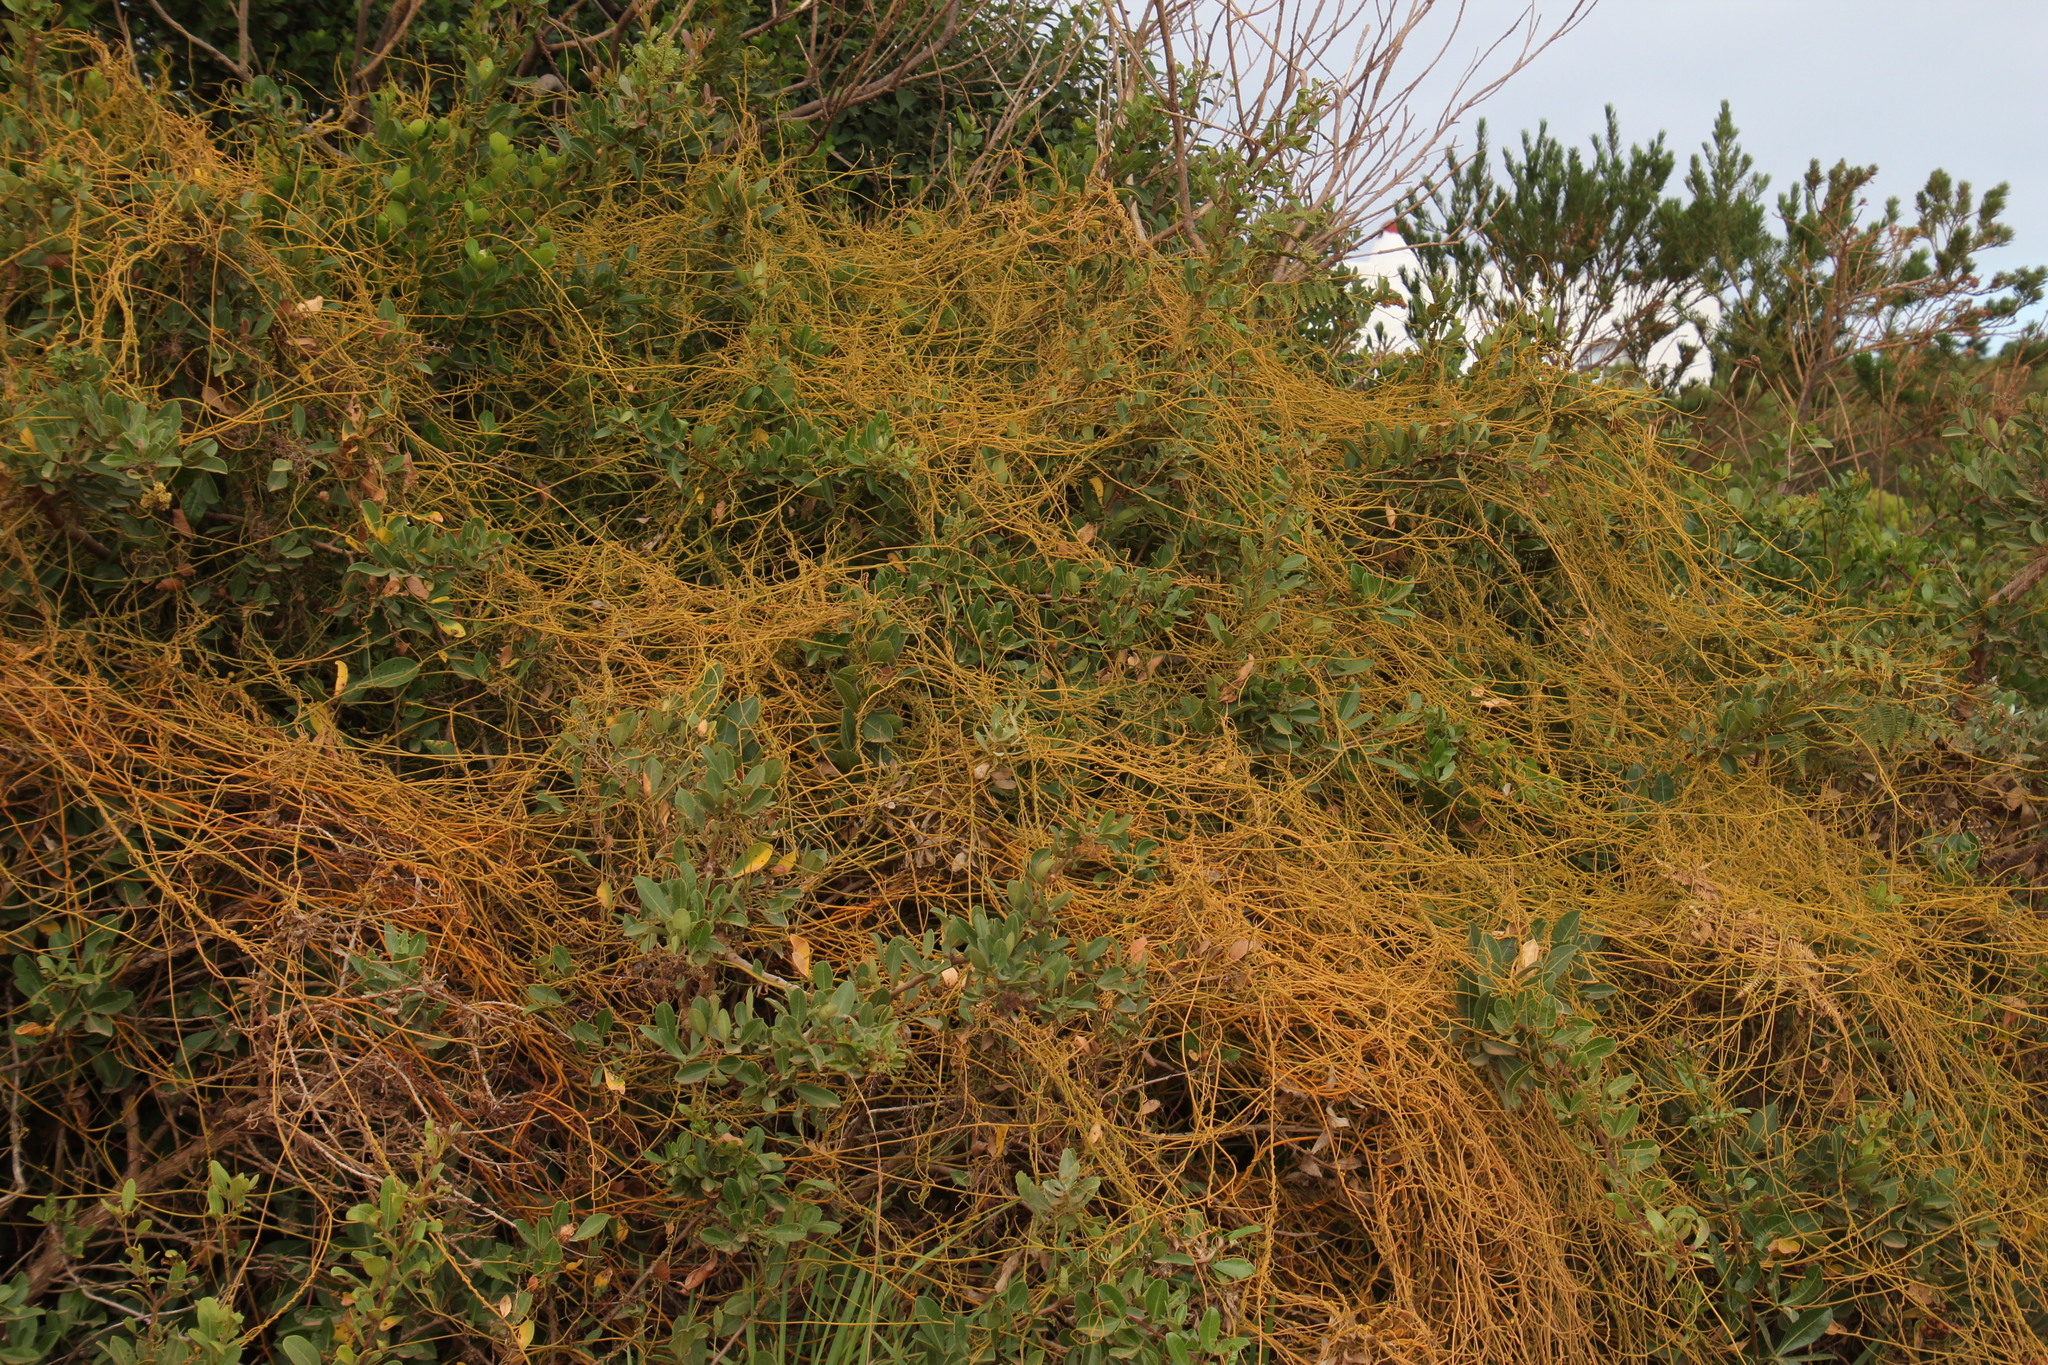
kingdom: Plantae
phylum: Tracheophyta
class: Magnoliopsida
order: Laurales
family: Lauraceae
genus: Cassytha
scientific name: Cassytha ciliolata
